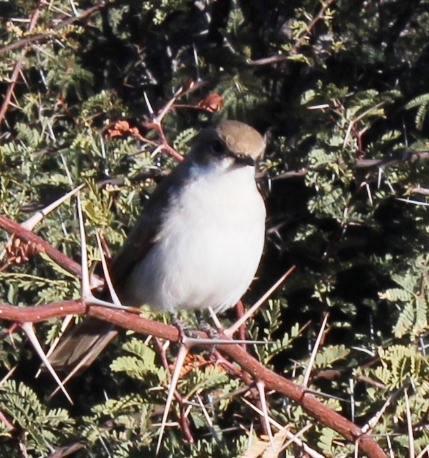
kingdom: Animalia
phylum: Chordata
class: Aves
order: Passeriformes
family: Muscicapidae
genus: Bradornis
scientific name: Bradornis mariquensis
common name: Marico flycatcher
